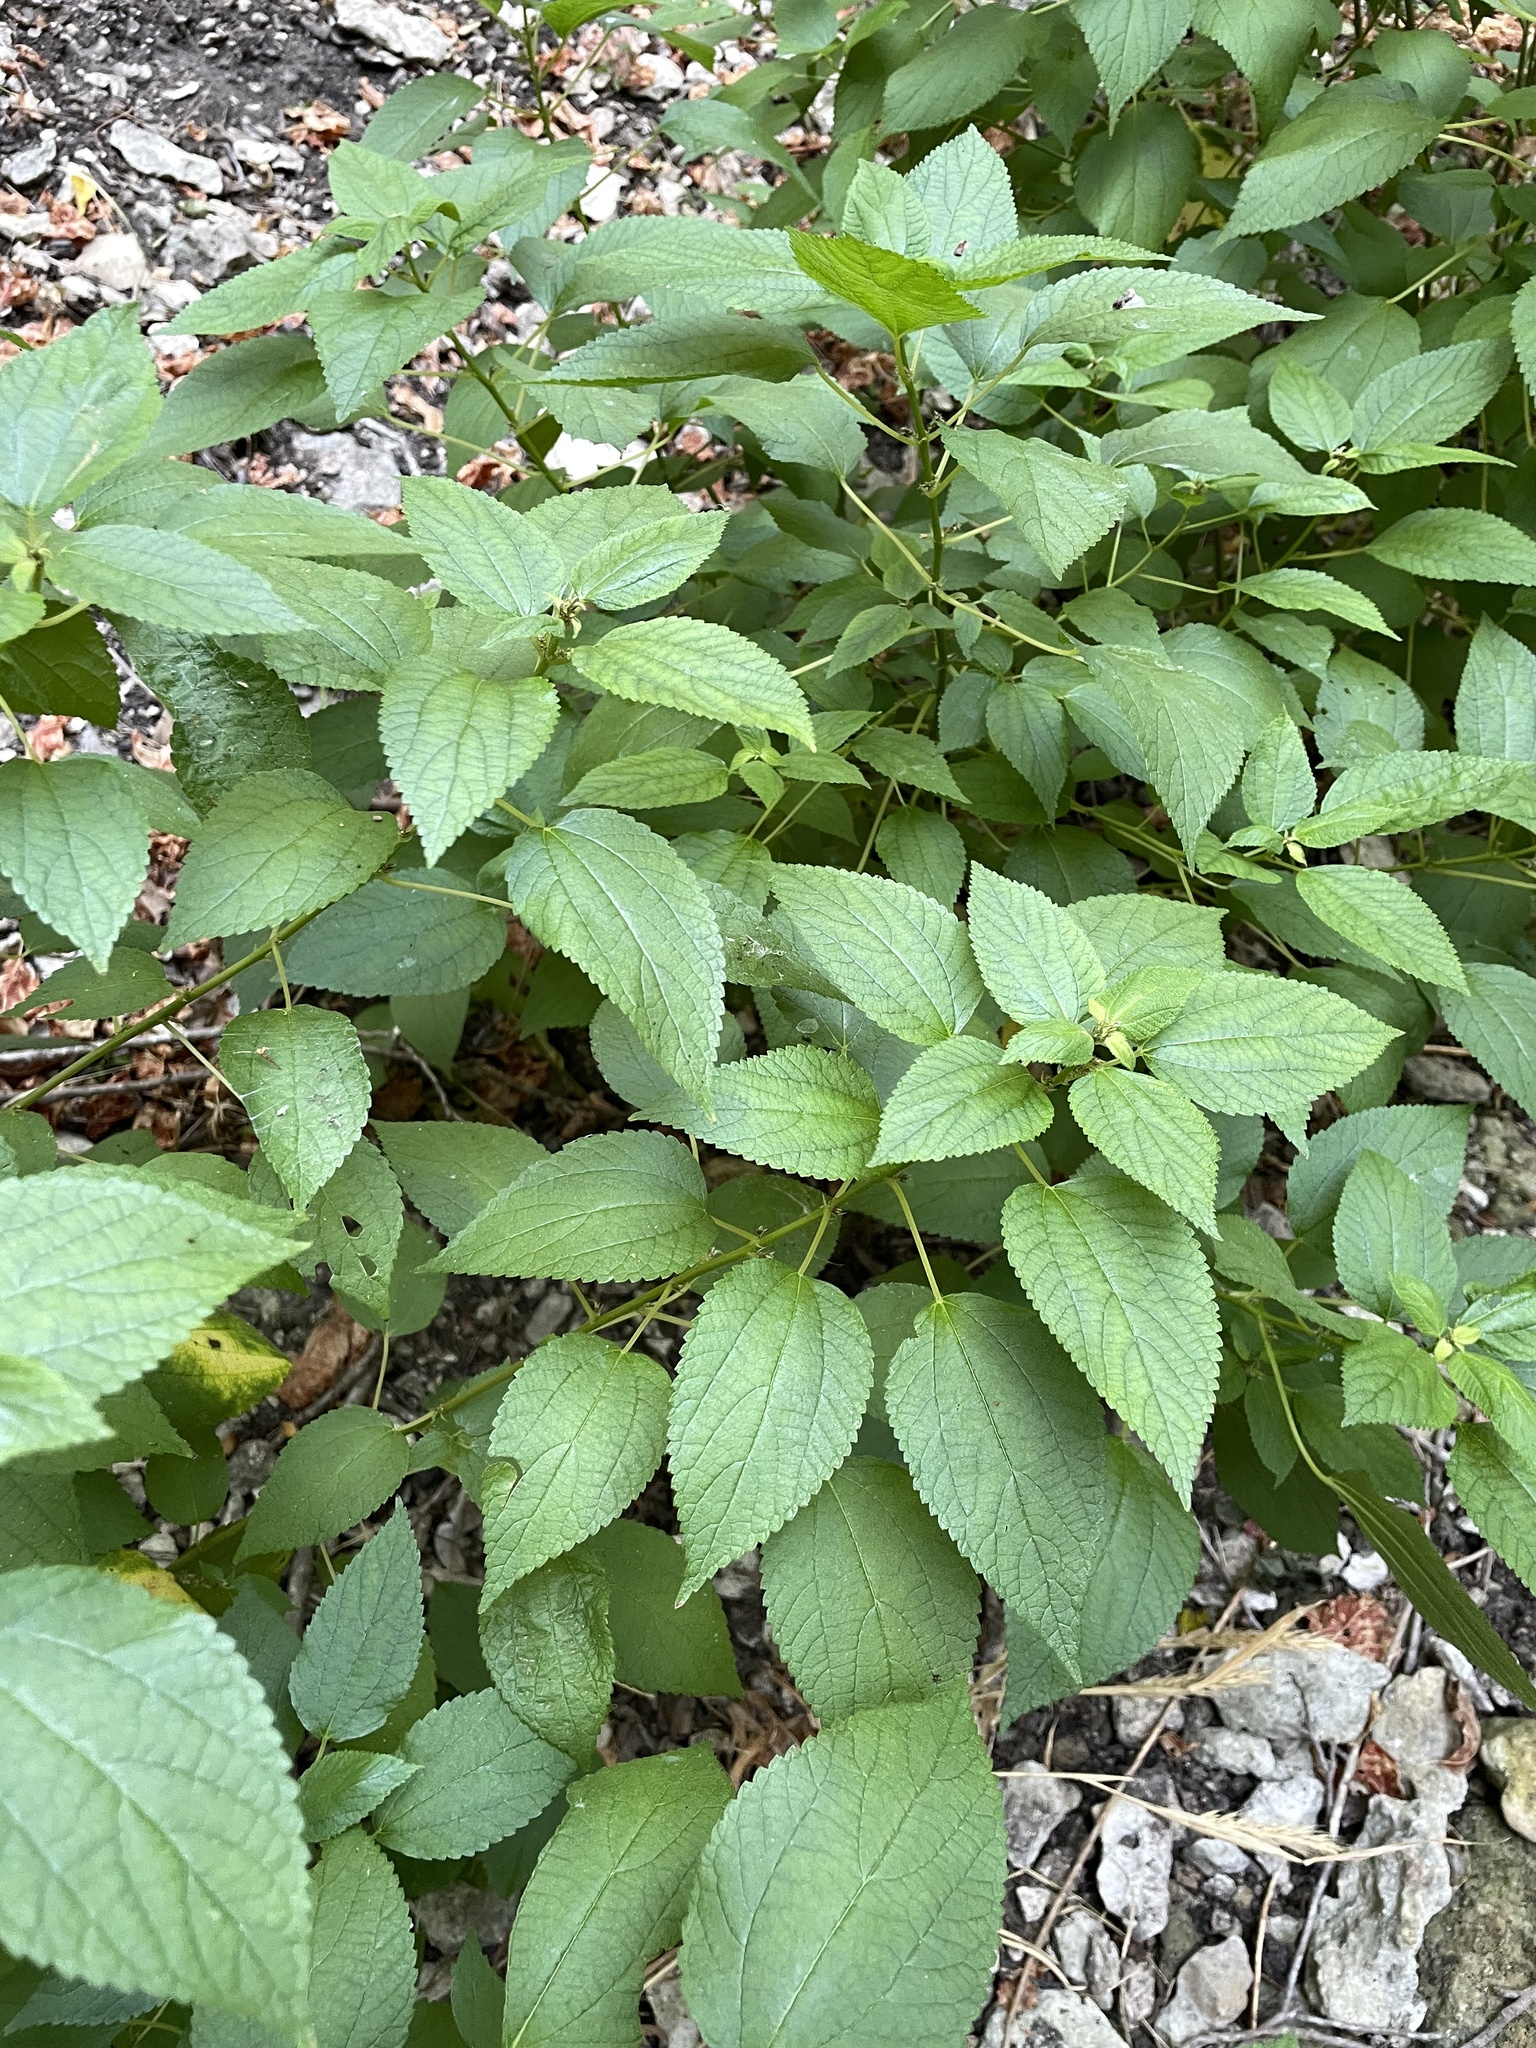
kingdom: Plantae
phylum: Tracheophyta
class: Magnoliopsida
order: Rosales
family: Urticaceae
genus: Boehmeria
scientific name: Boehmeria cylindrica
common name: Bog-hemp
